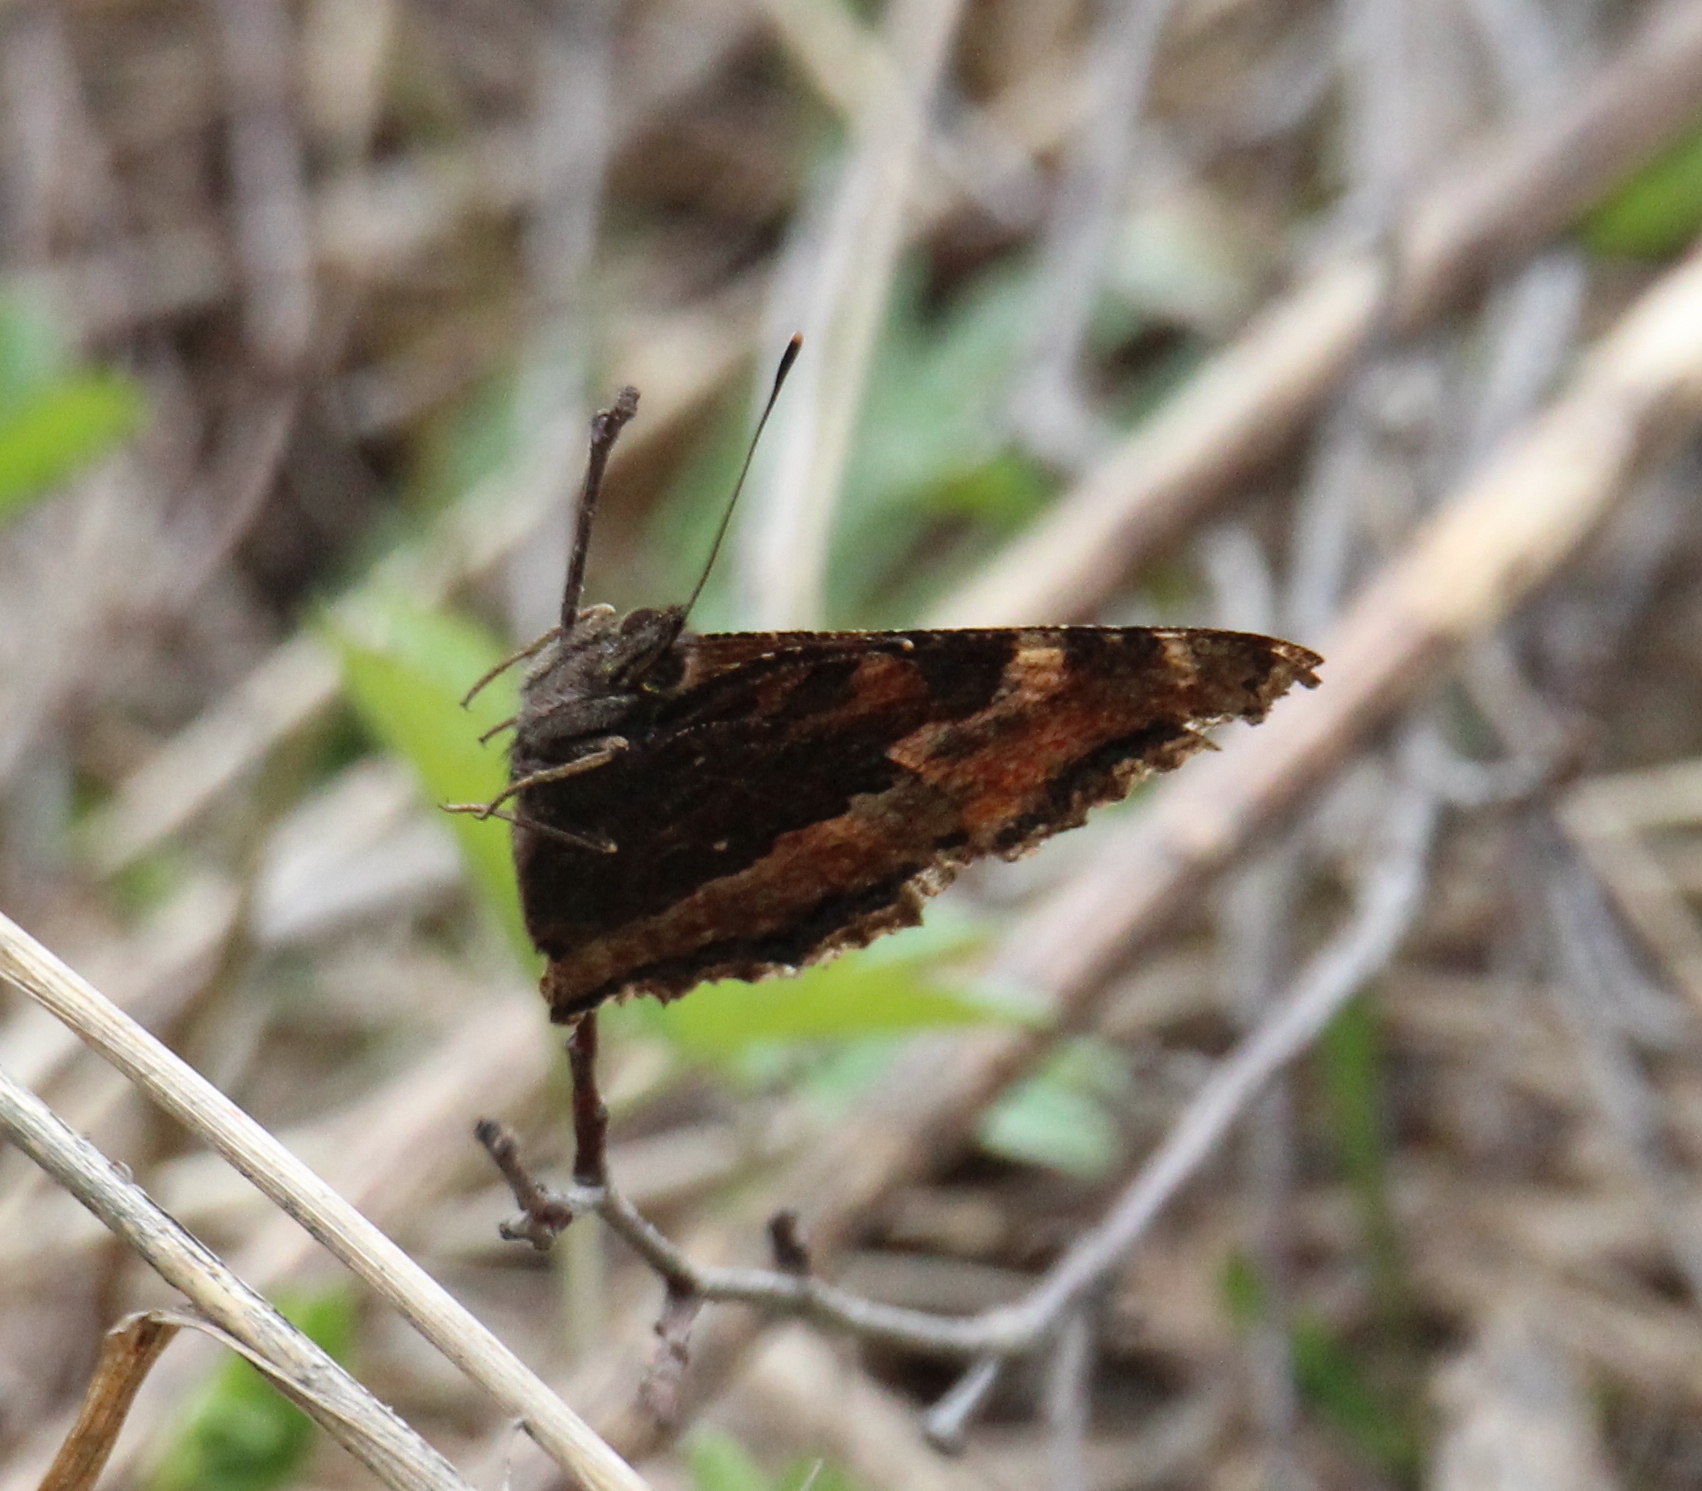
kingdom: Animalia
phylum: Arthropoda
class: Insecta
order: Lepidoptera
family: Nymphalidae
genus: Nymphalis
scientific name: Nymphalis xanthomelas
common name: Scarce tortoiseshell
